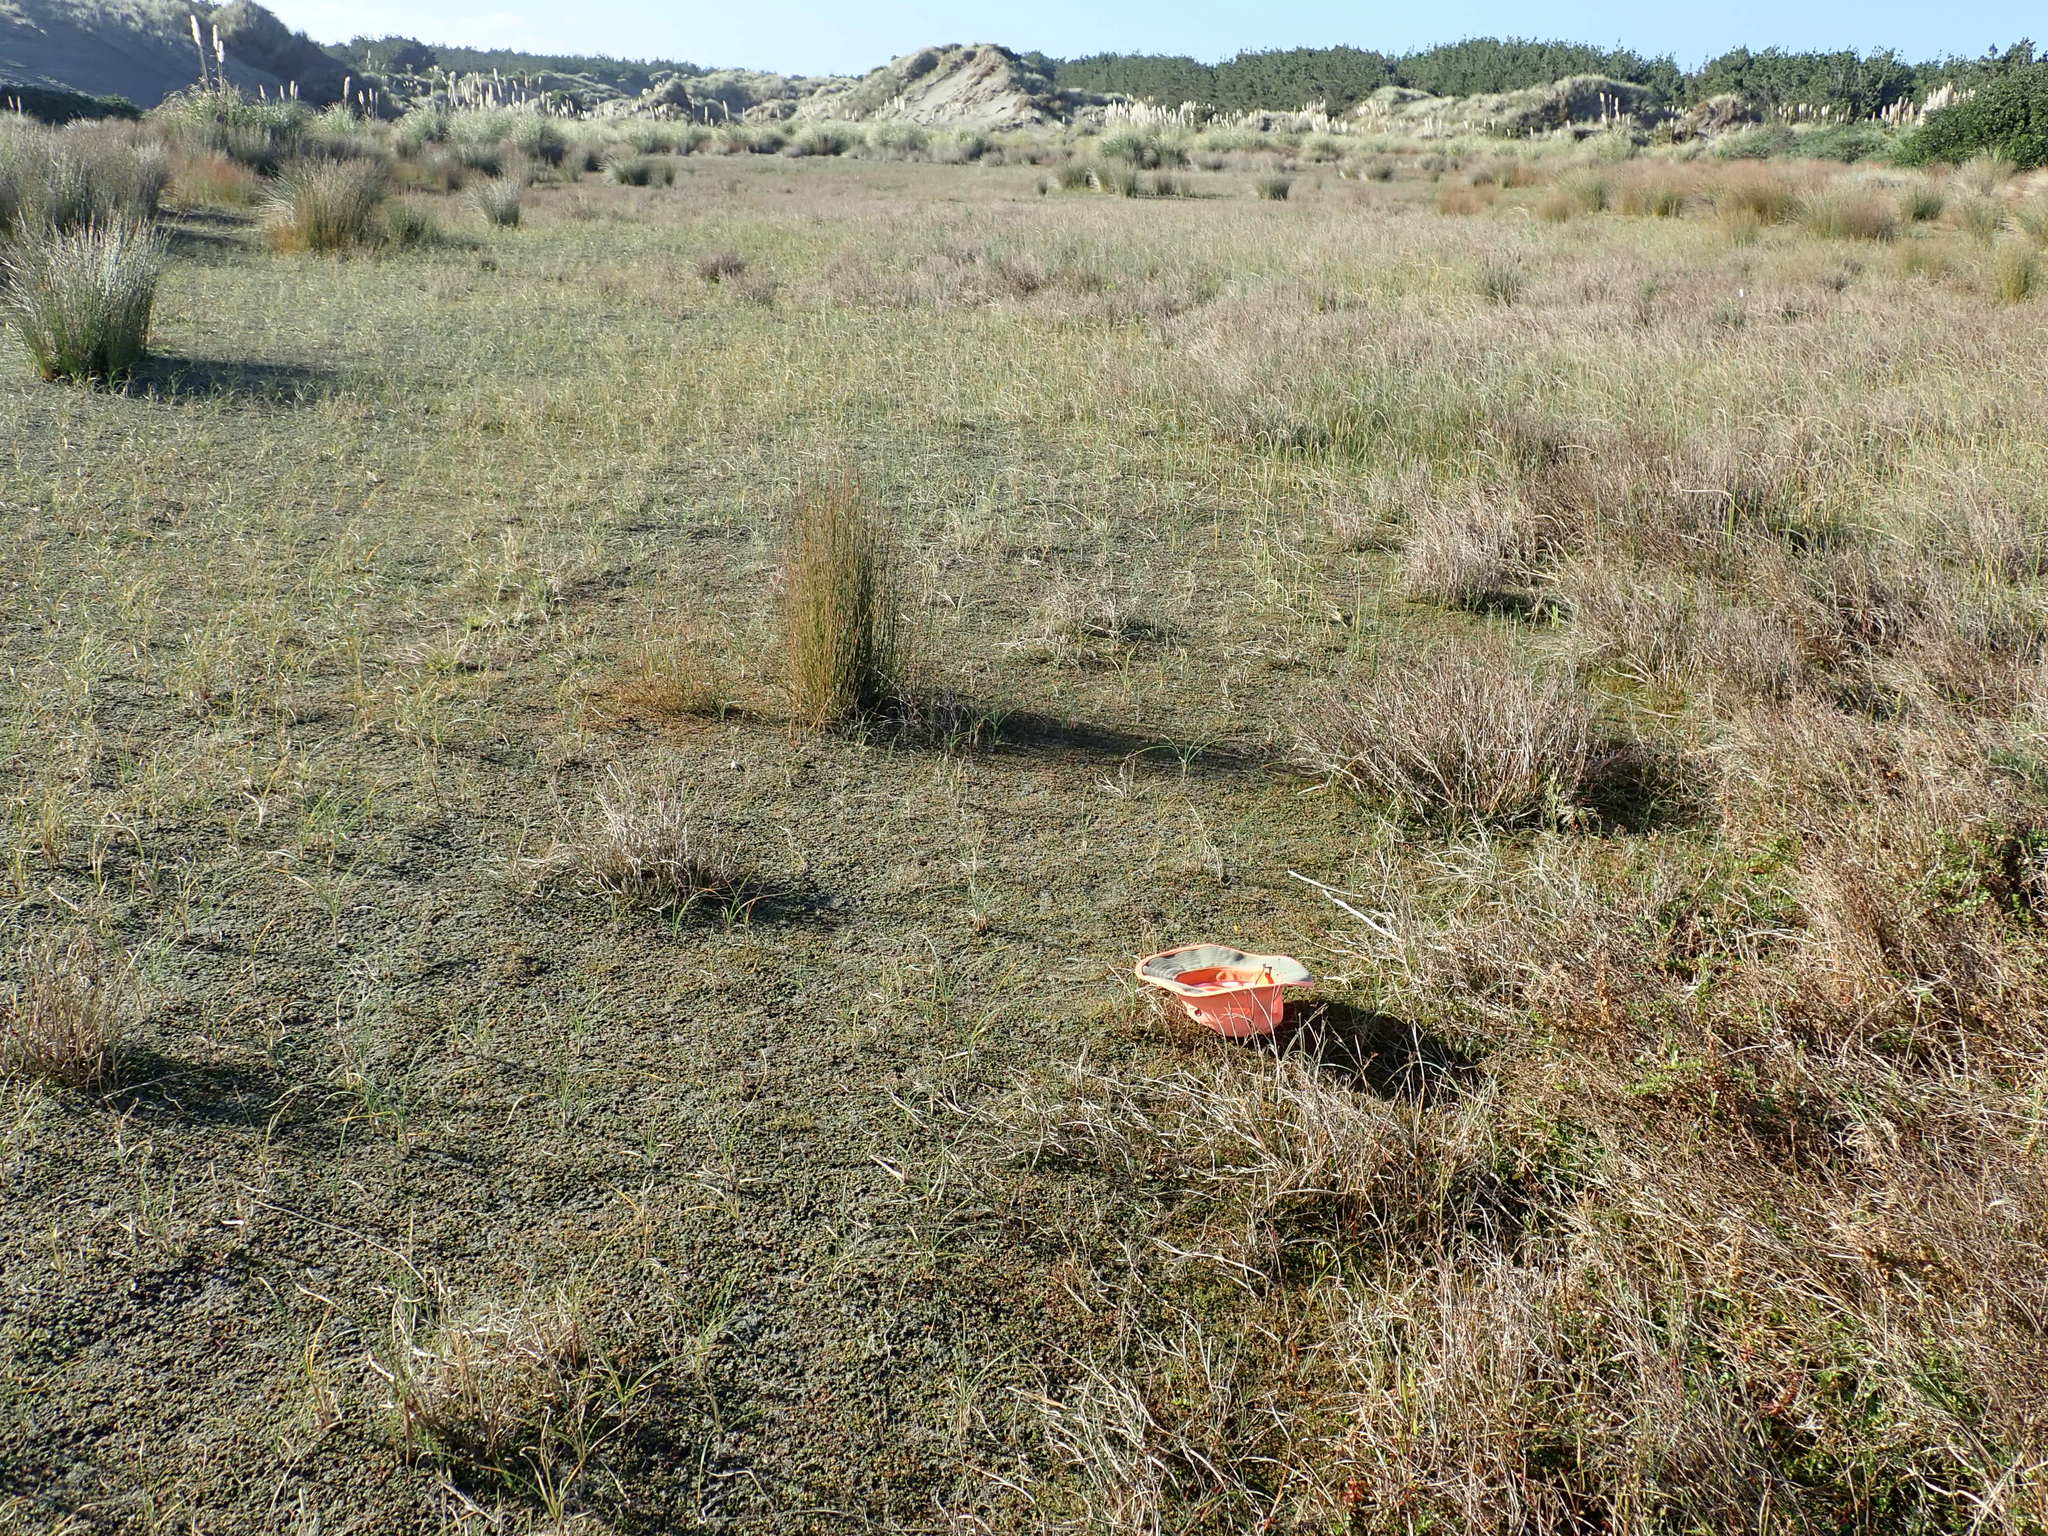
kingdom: Plantae
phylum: Tracheophyta
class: Liliopsida
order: Alismatales
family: Juncaginaceae
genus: Triglochin
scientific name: Triglochin striata
